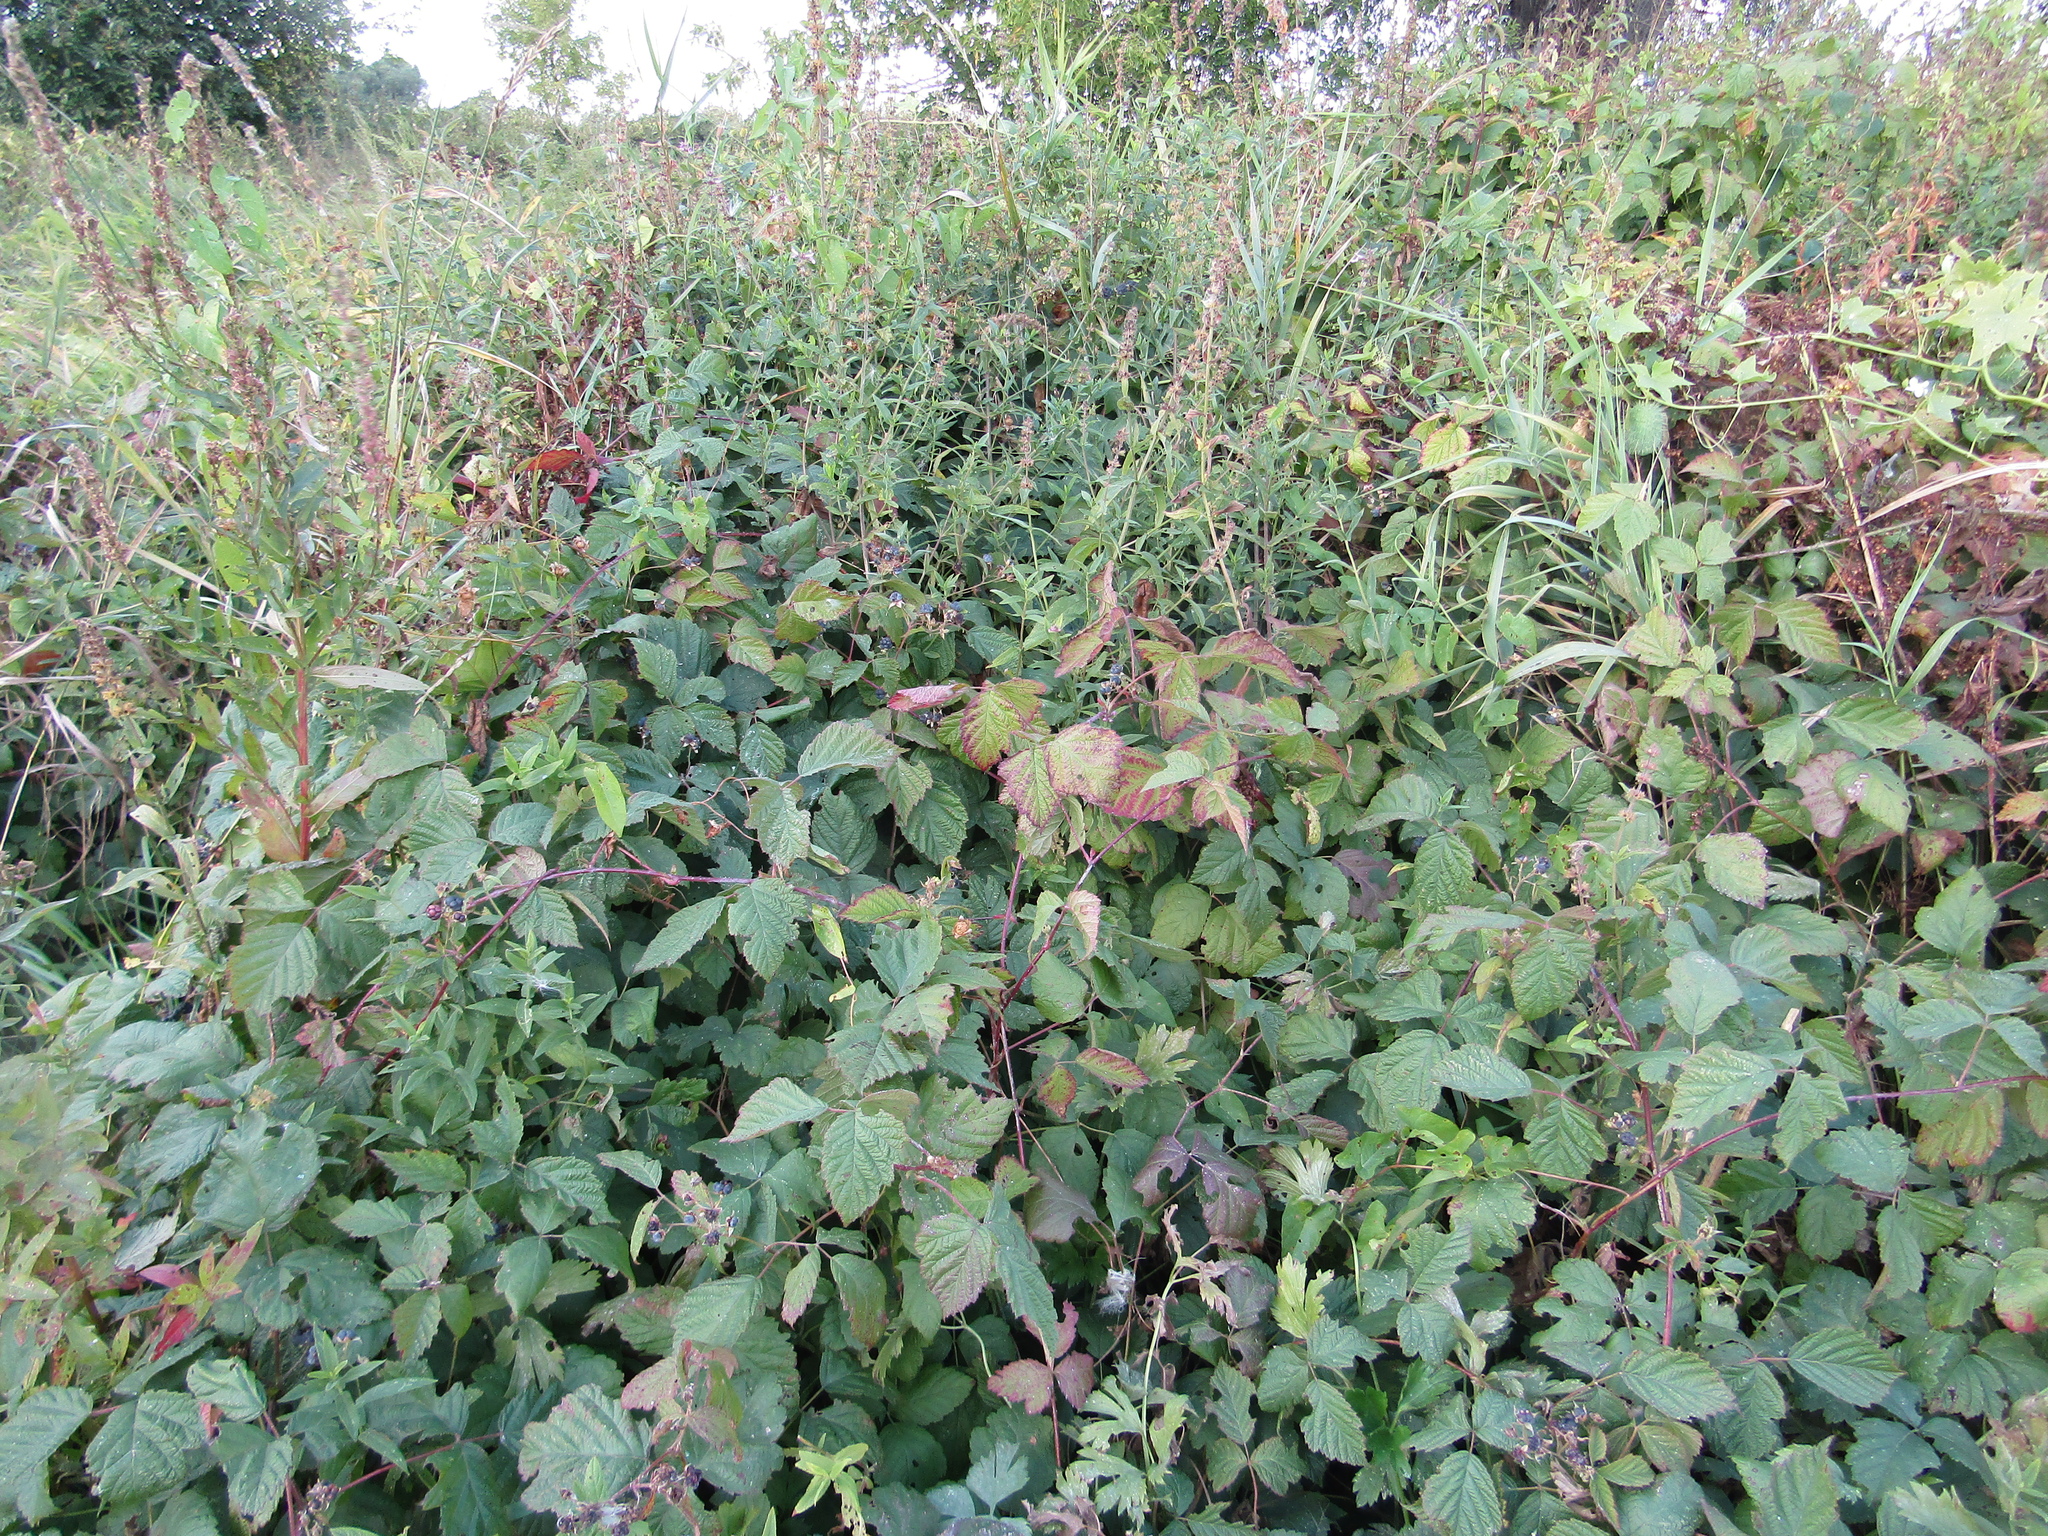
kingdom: Plantae
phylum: Tracheophyta
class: Magnoliopsida
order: Rosales
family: Rosaceae
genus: Rubus
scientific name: Rubus caesius
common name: Dewberry
